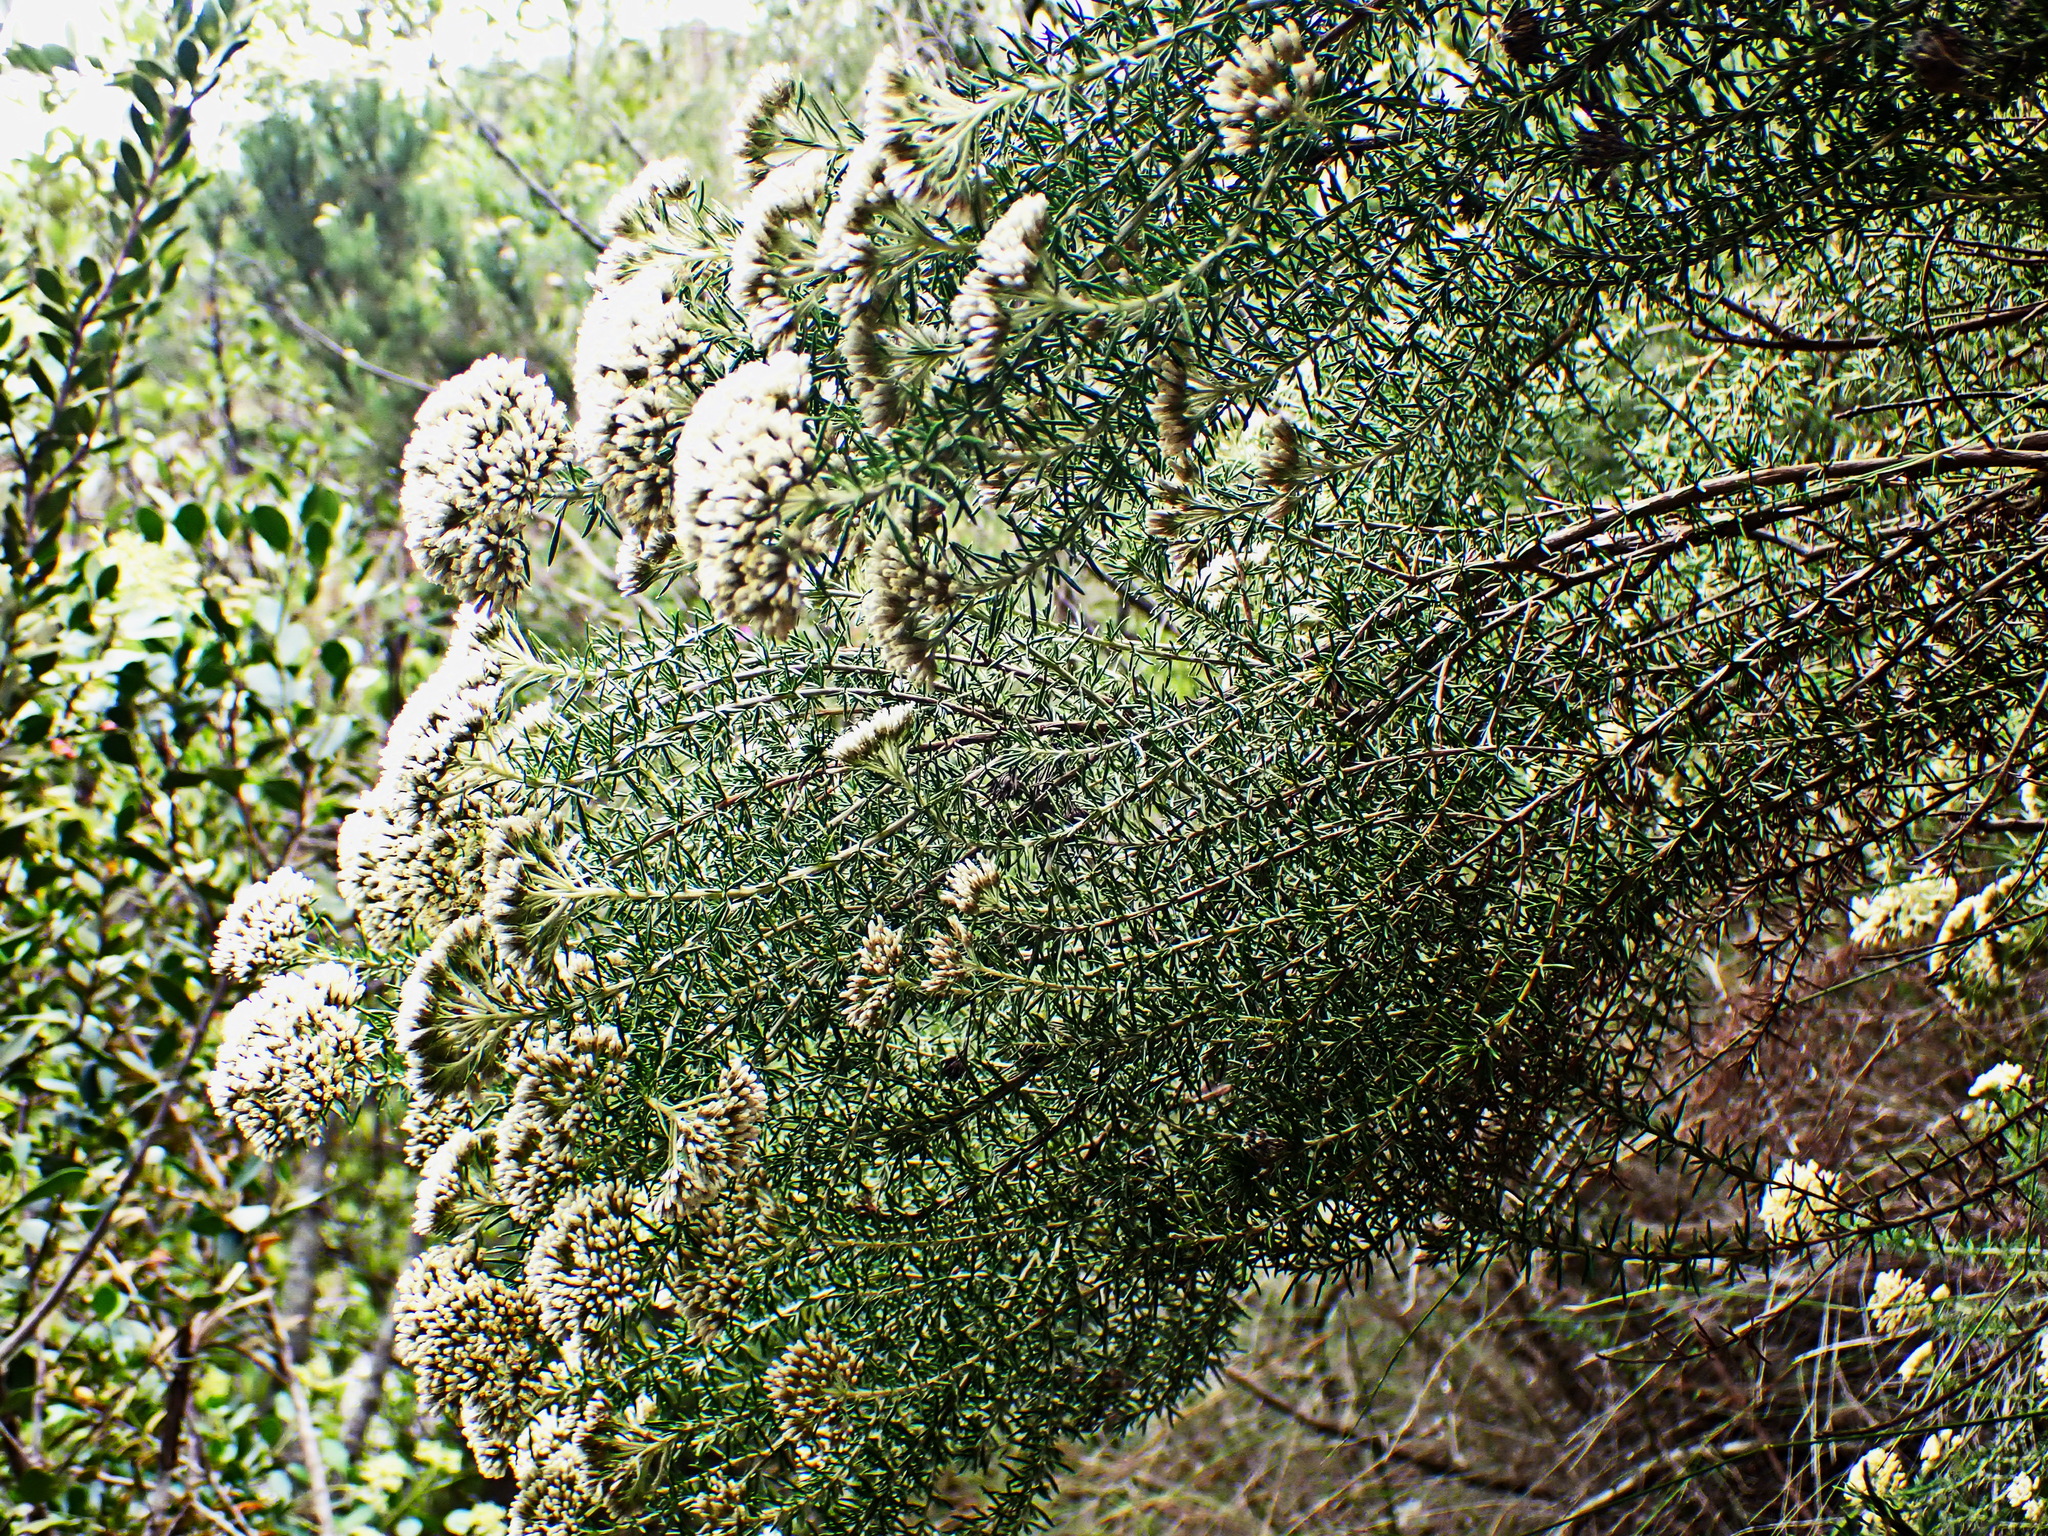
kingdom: Plantae
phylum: Tracheophyta
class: Magnoliopsida
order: Asterales
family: Asteraceae
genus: Metalasia
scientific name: Metalasia acuta
